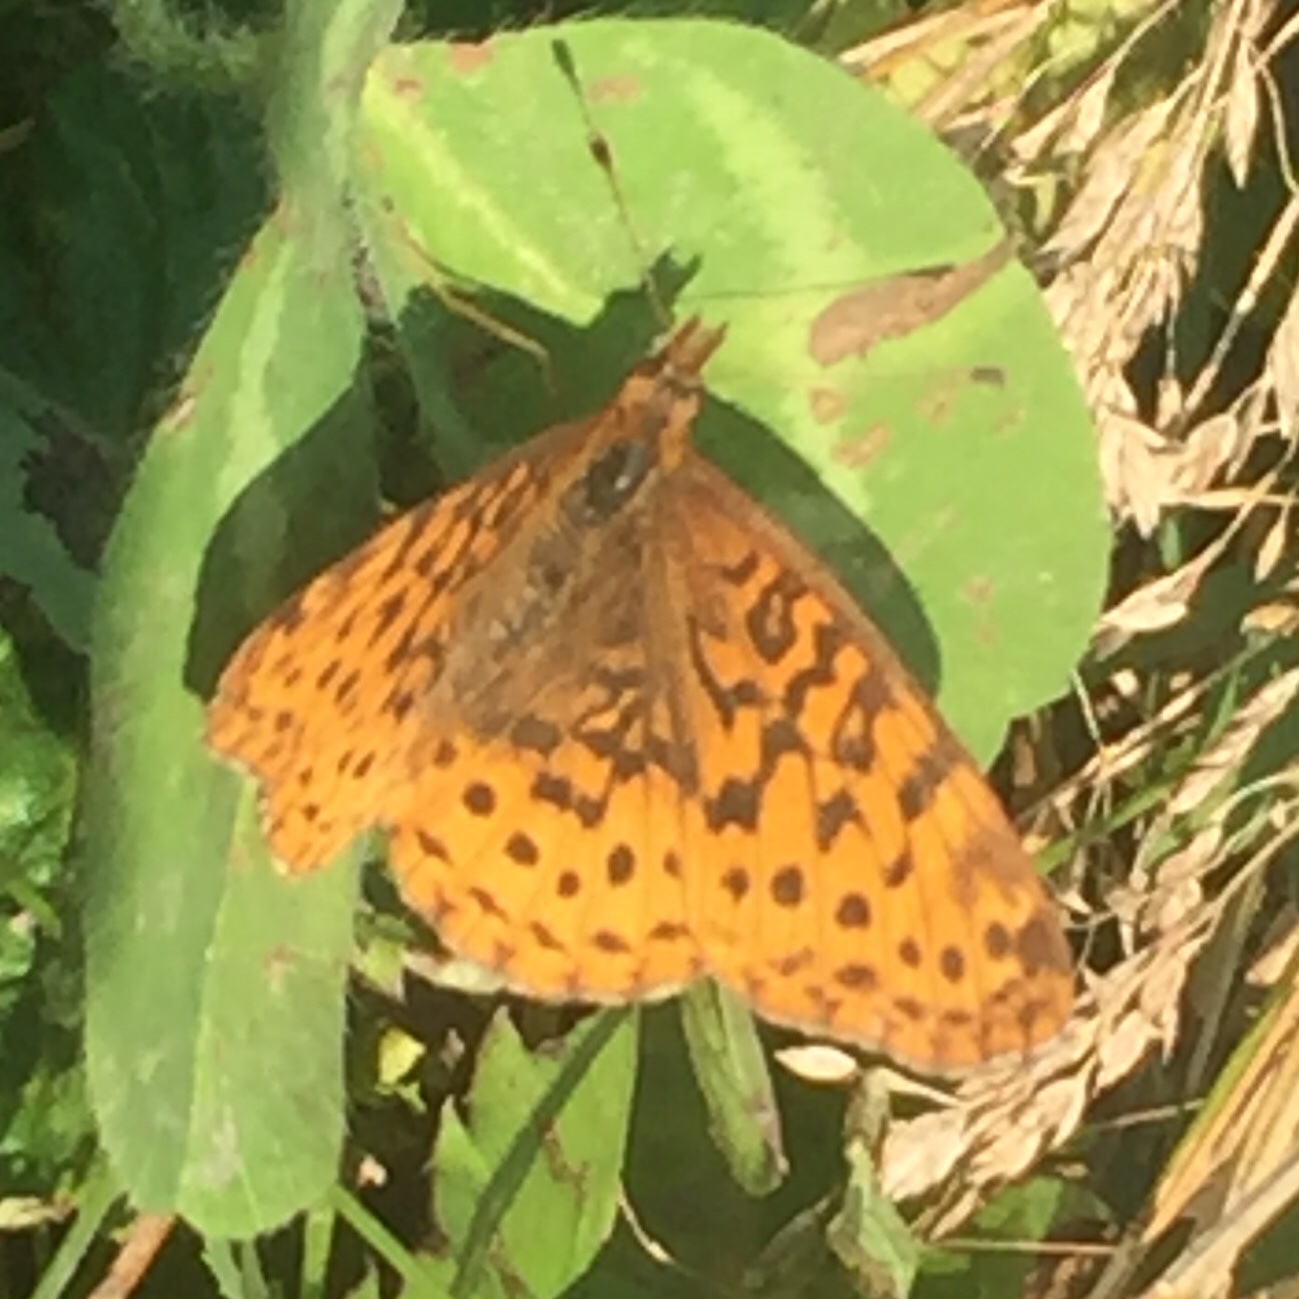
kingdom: Animalia
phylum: Arthropoda
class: Insecta
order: Lepidoptera
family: Nymphalidae
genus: Clossiana
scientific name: Clossiana toddi
